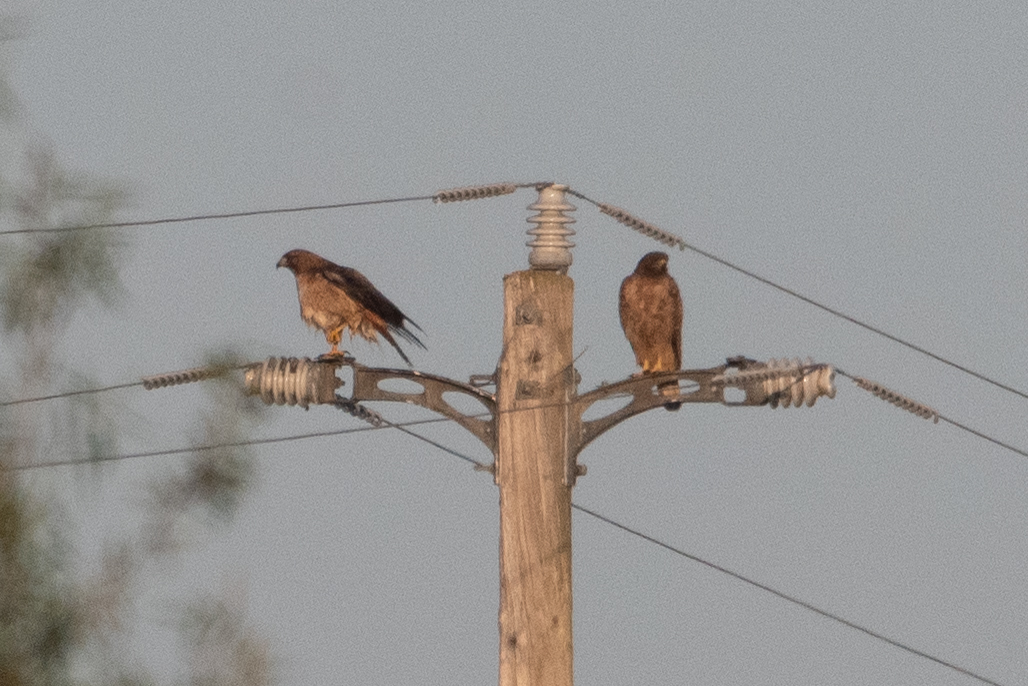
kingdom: Animalia
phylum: Chordata
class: Aves
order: Accipitriformes
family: Accipitridae
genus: Buteo
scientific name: Buteo jamaicensis
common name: Red-tailed hawk
